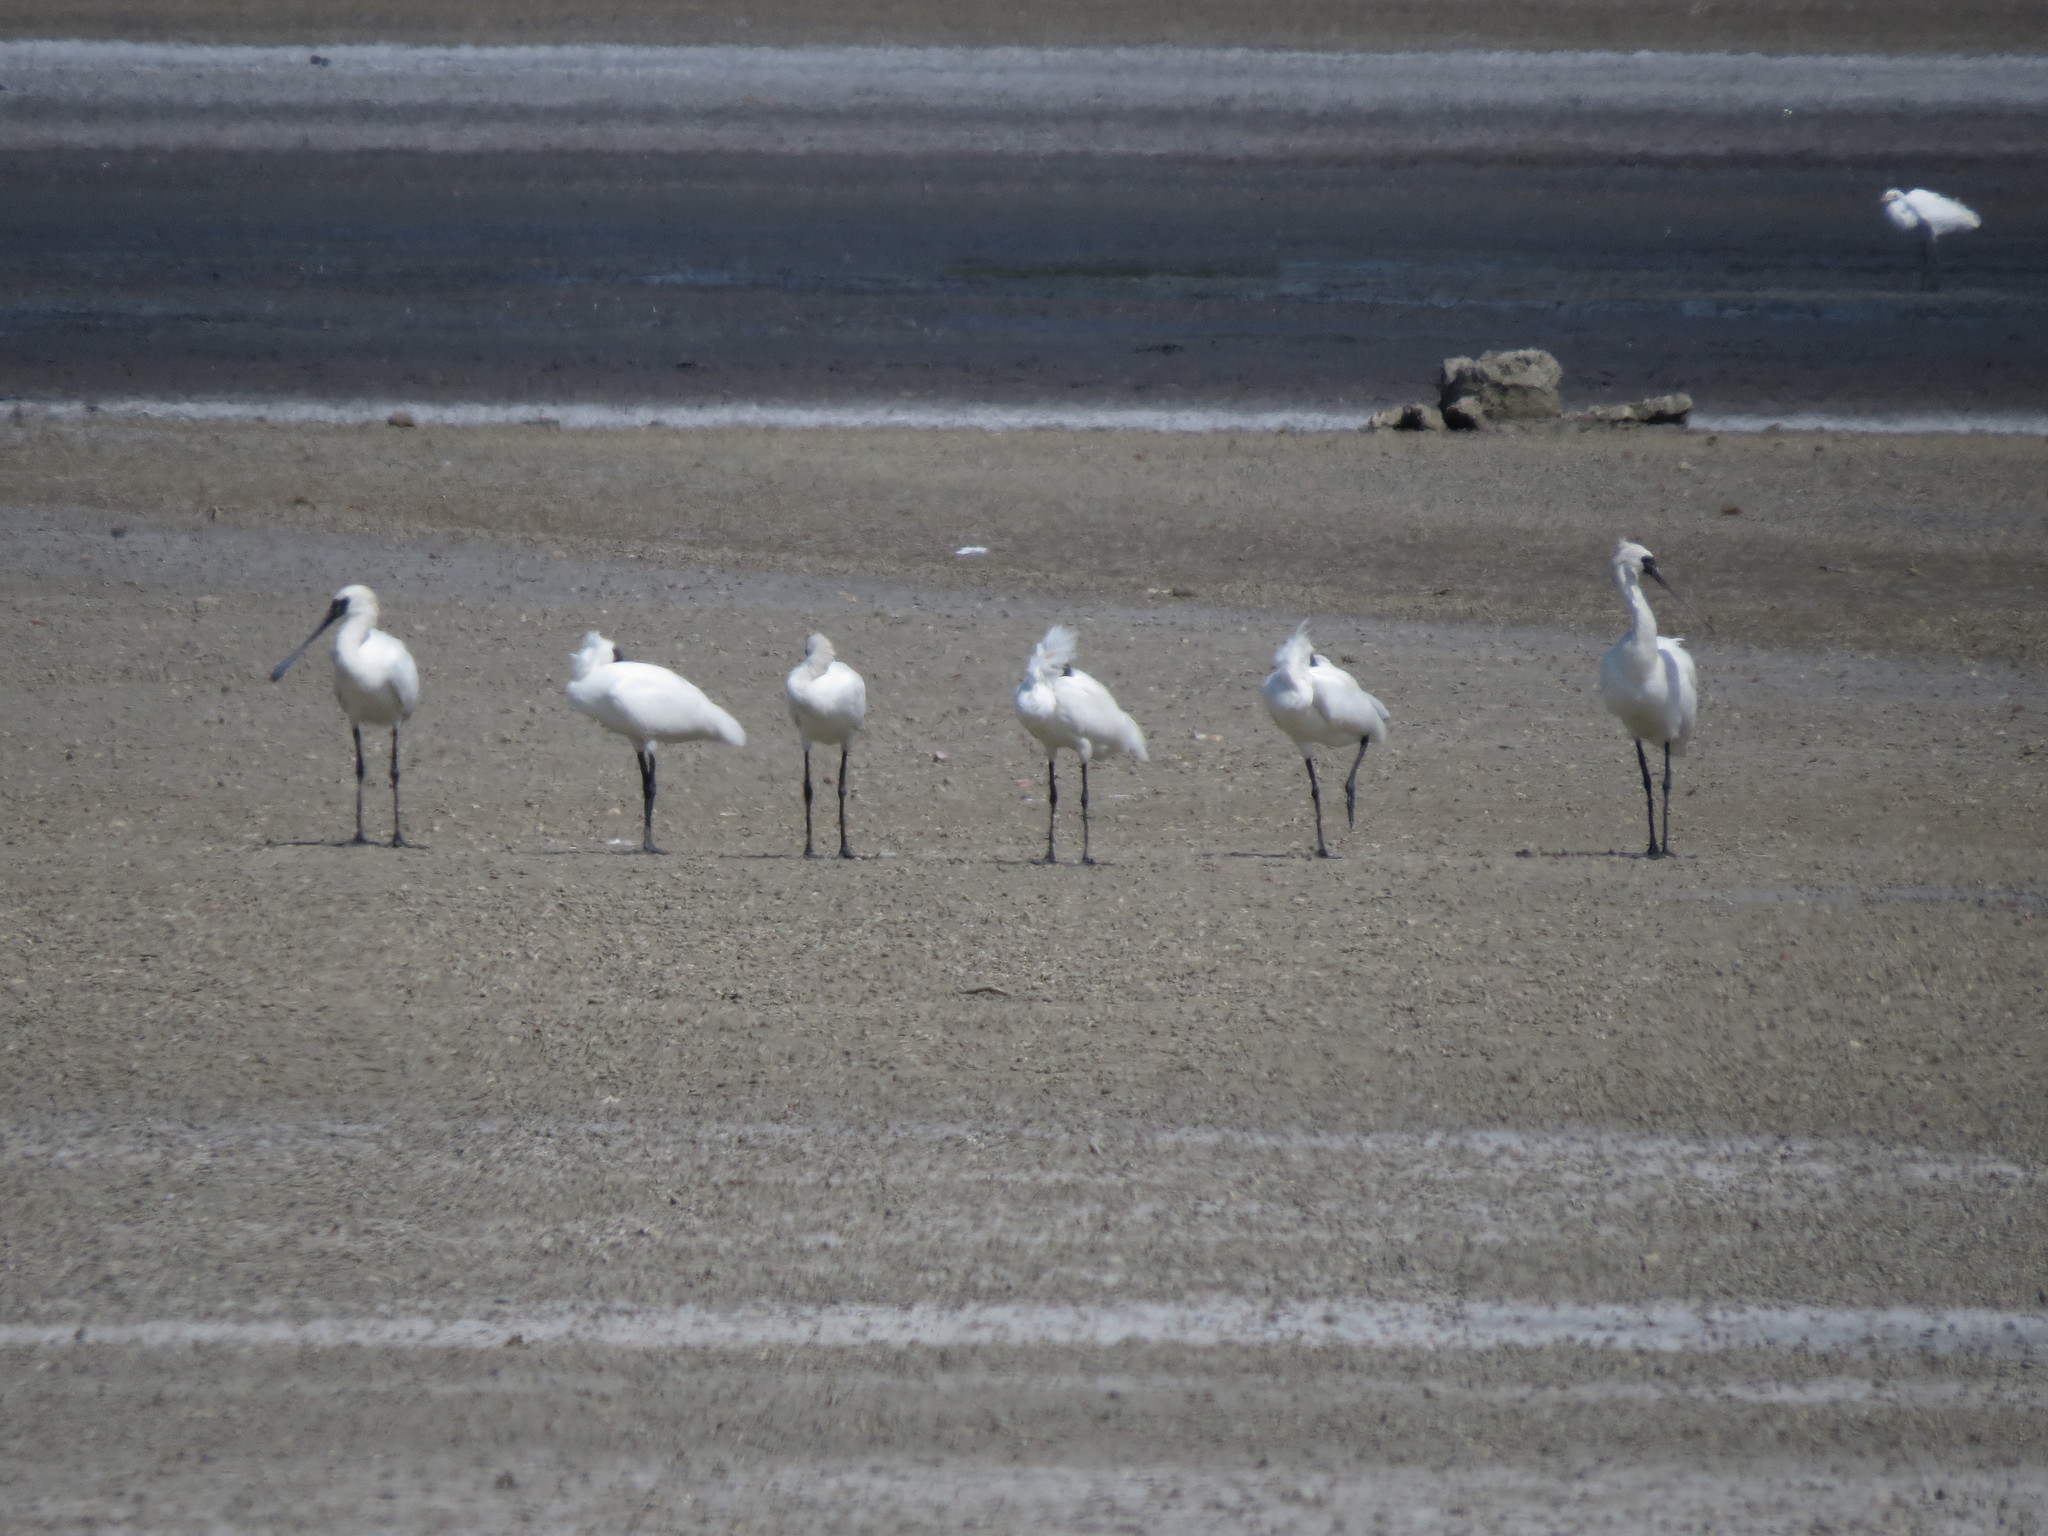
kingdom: Animalia
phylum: Chordata
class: Aves
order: Pelecaniformes
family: Threskiornithidae
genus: Platalea
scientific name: Platalea minor
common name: Black-faced spoonbill
